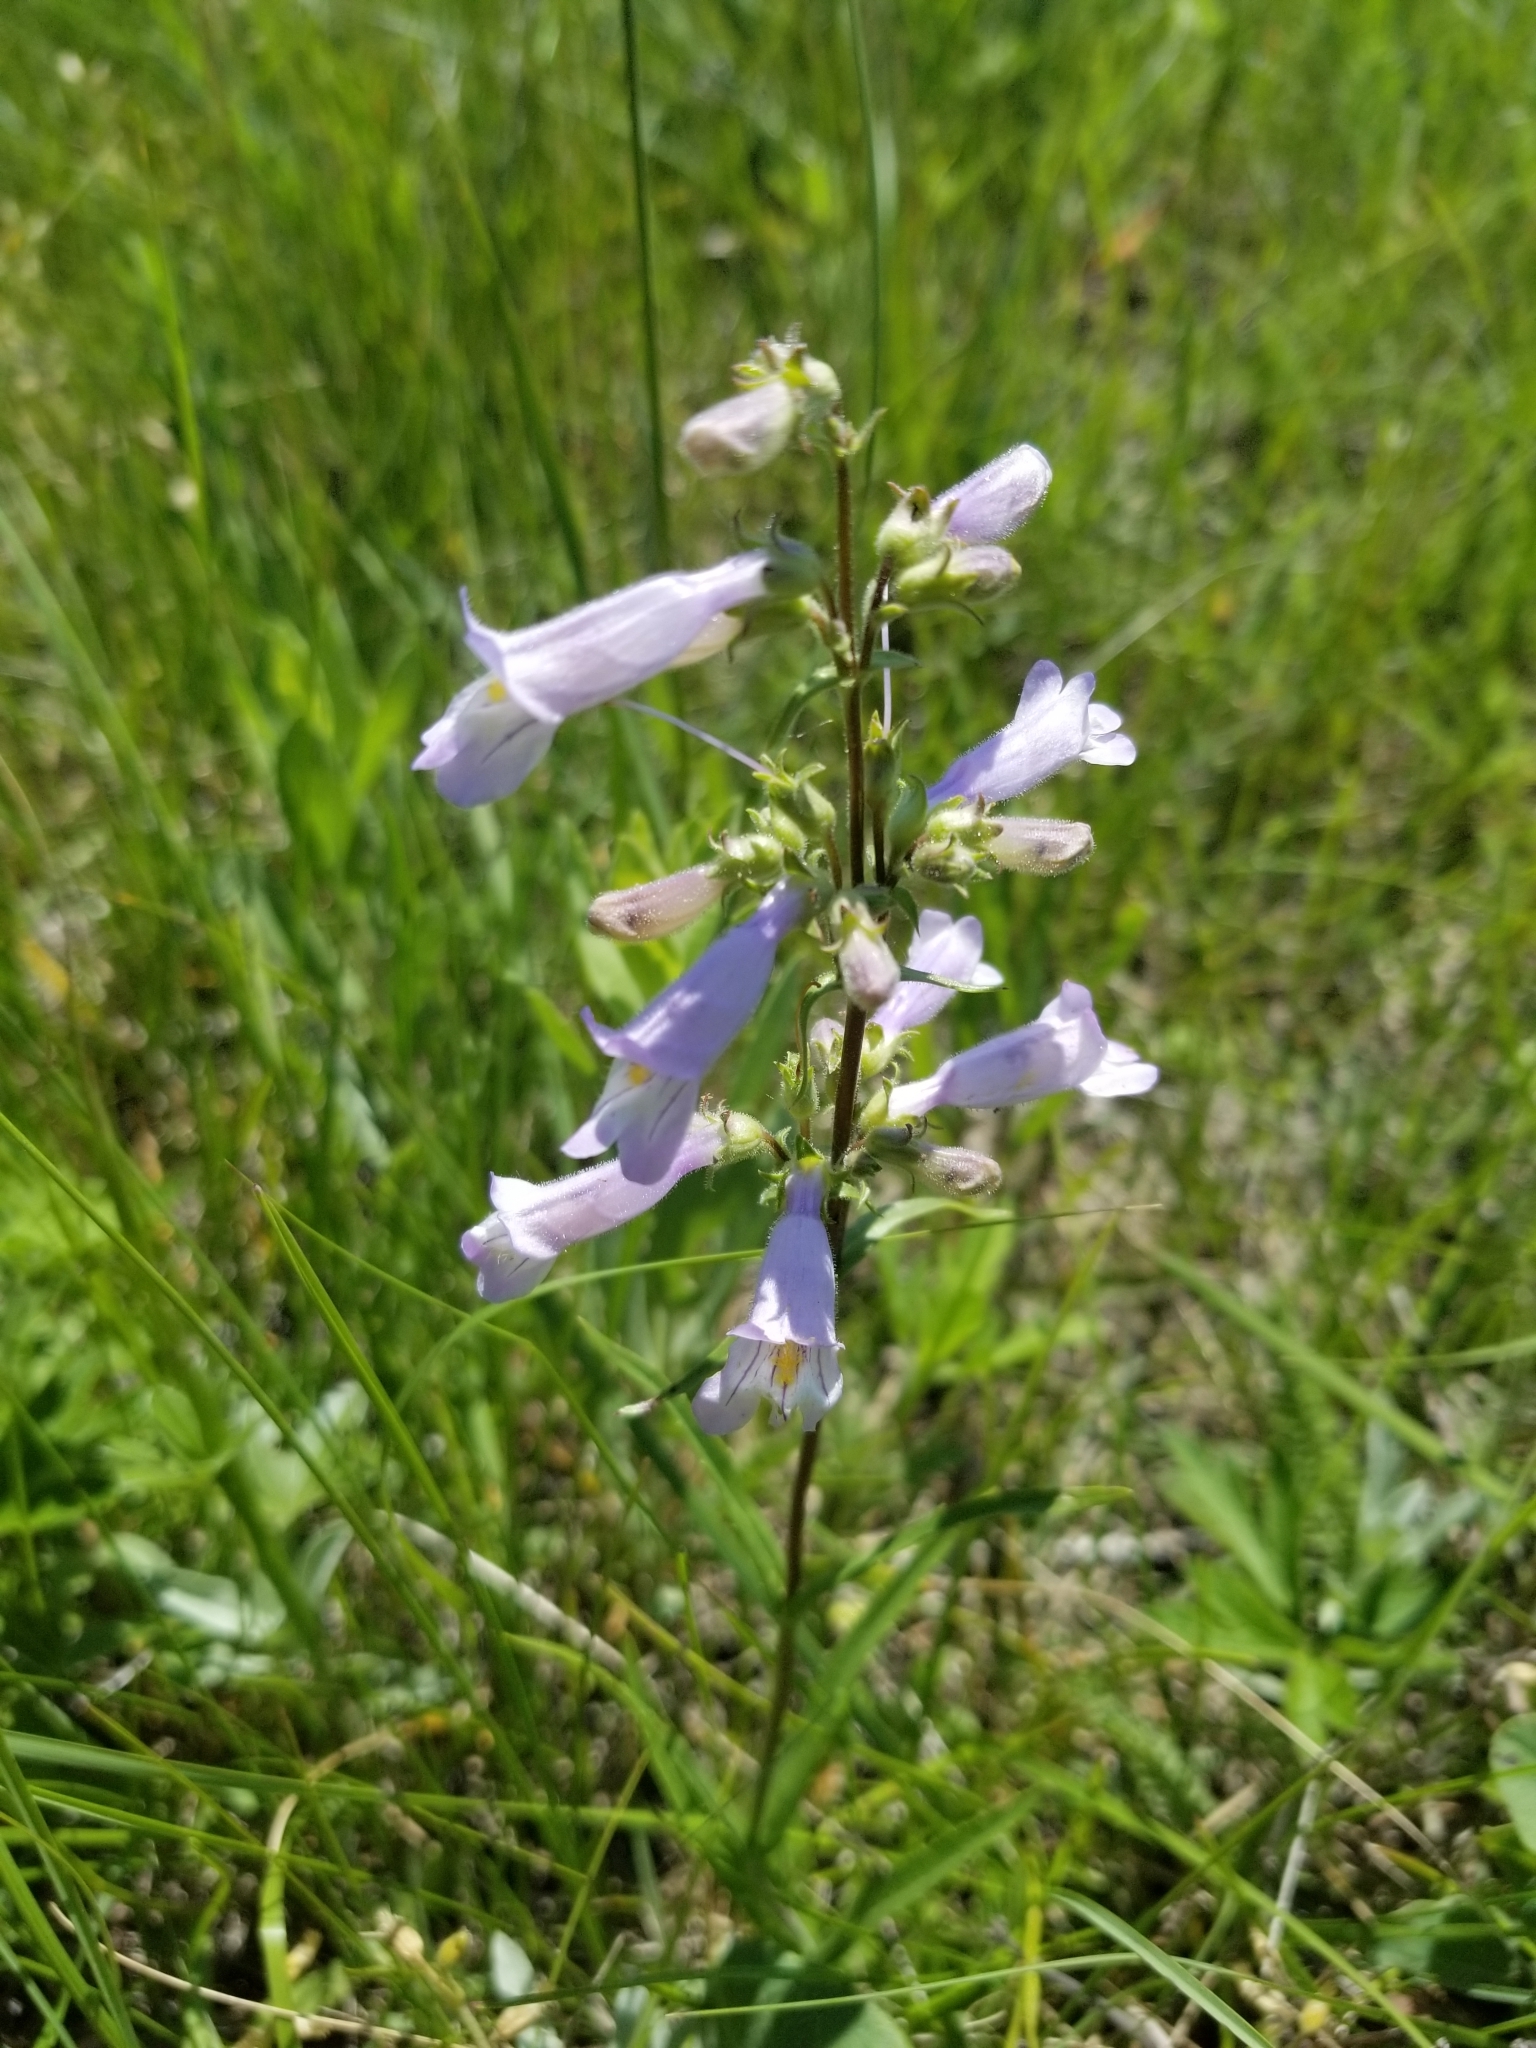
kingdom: Plantae
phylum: Tracheophyta
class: Magnoliopsida
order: Lamiales
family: Plantaginaceae
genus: Penstemon
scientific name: Penstemon gracilis
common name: Slender beardtongue
